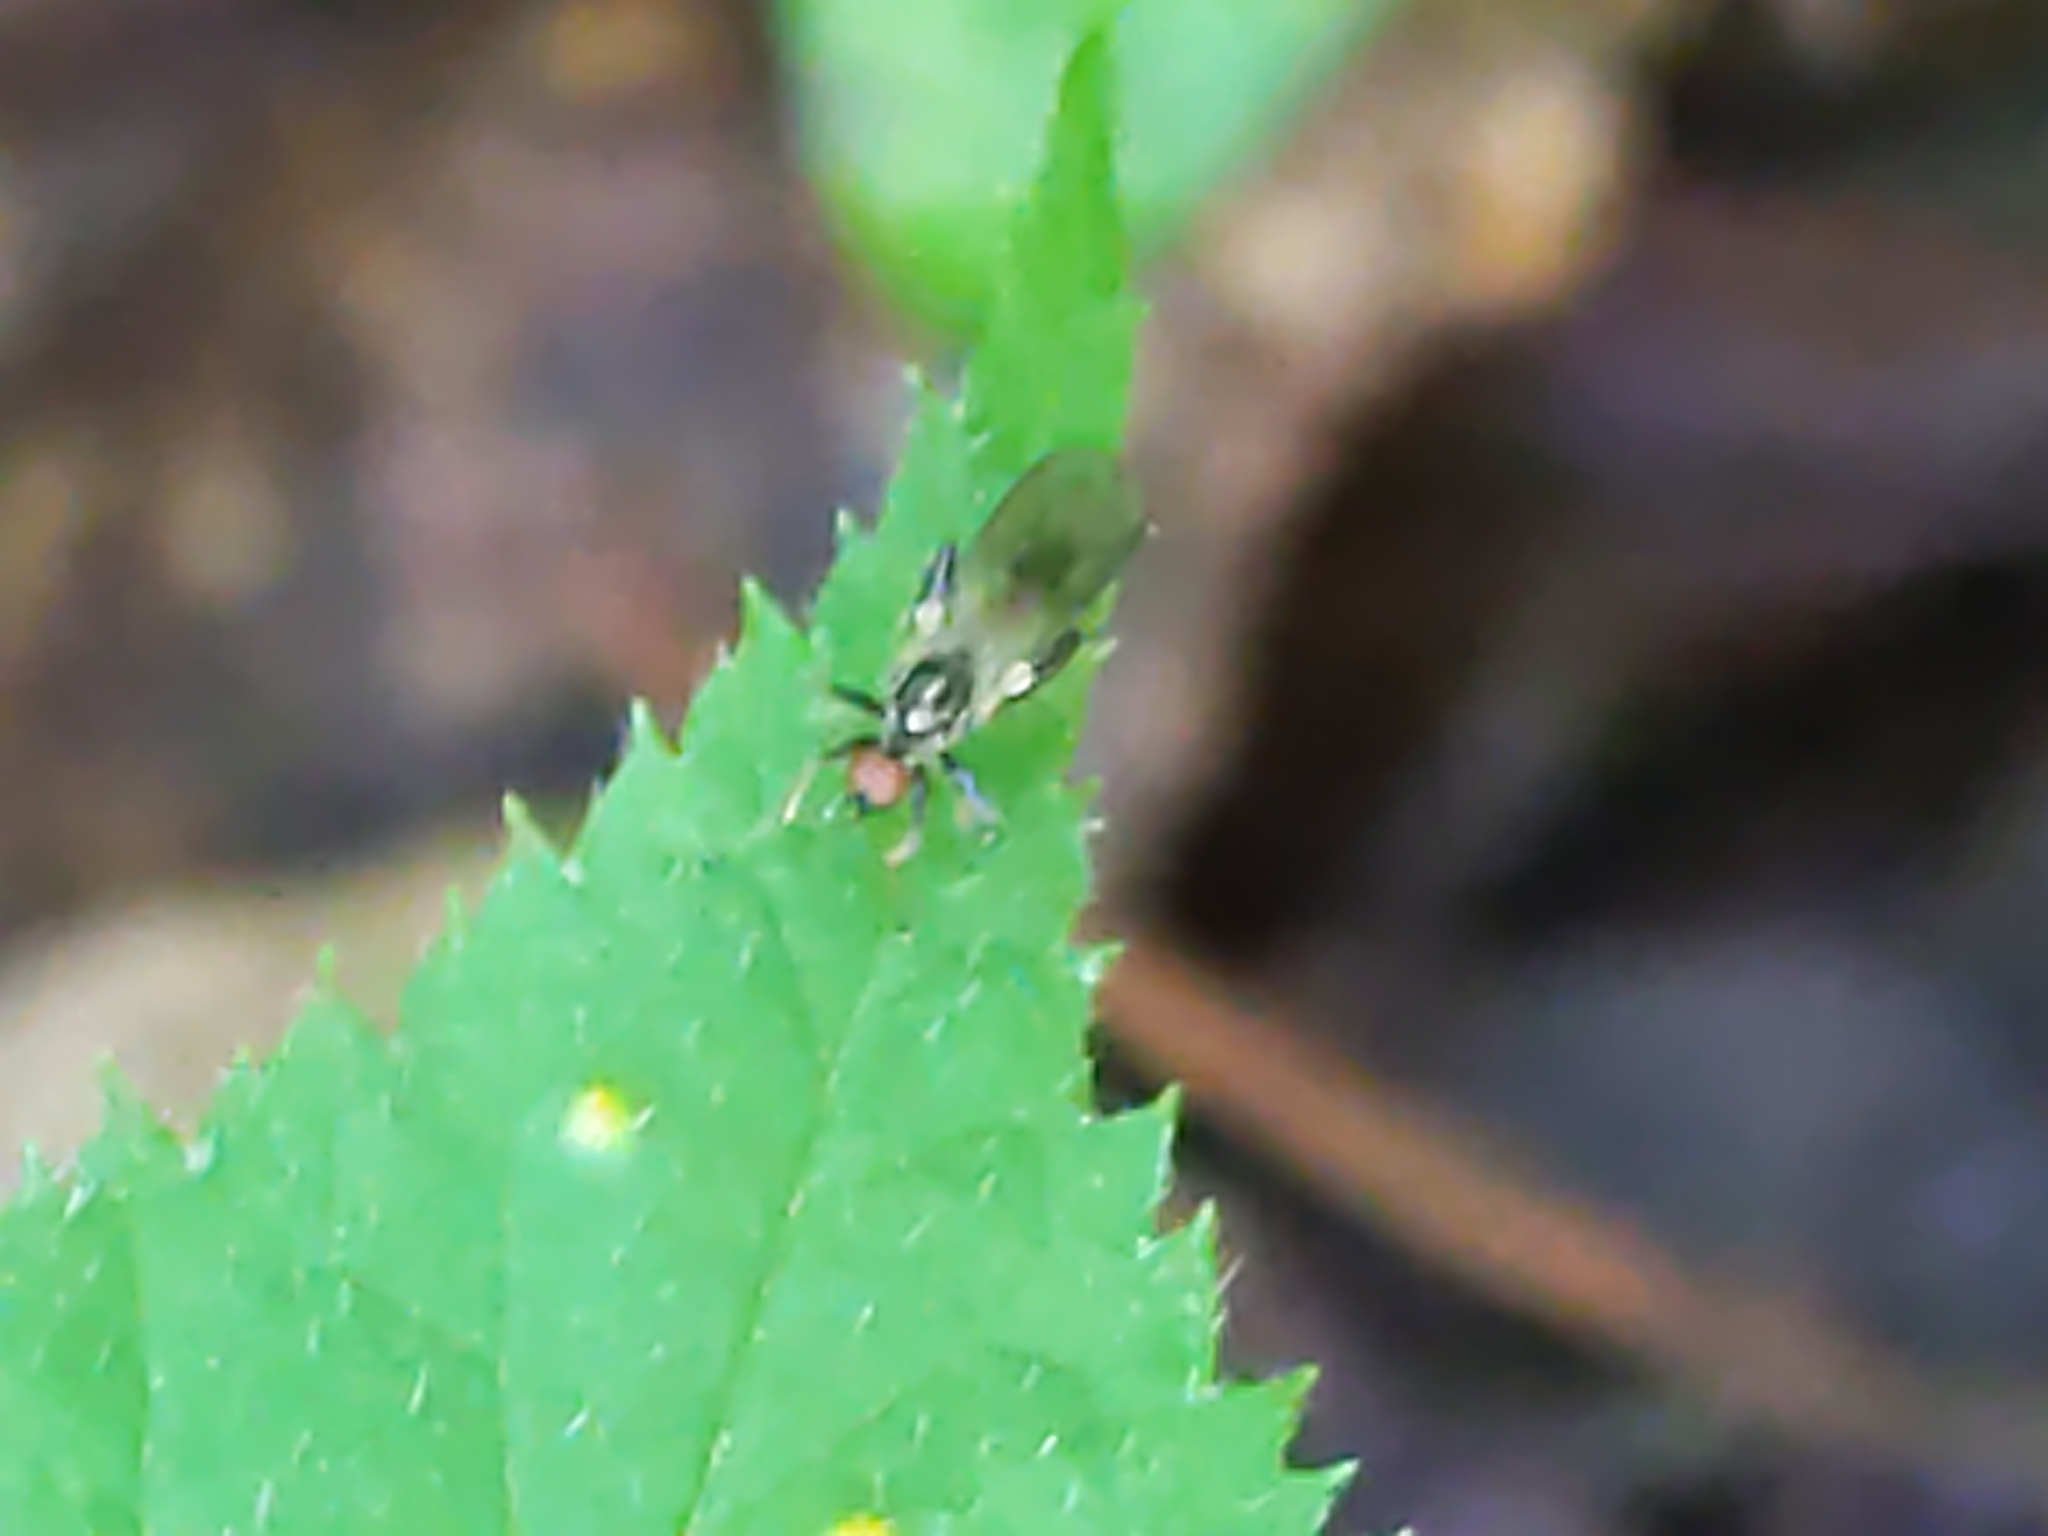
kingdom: Animalia
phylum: Arthropoda
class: Insecta
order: Diptera
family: Hybotidae
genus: Hybos
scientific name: Hybos reversus
